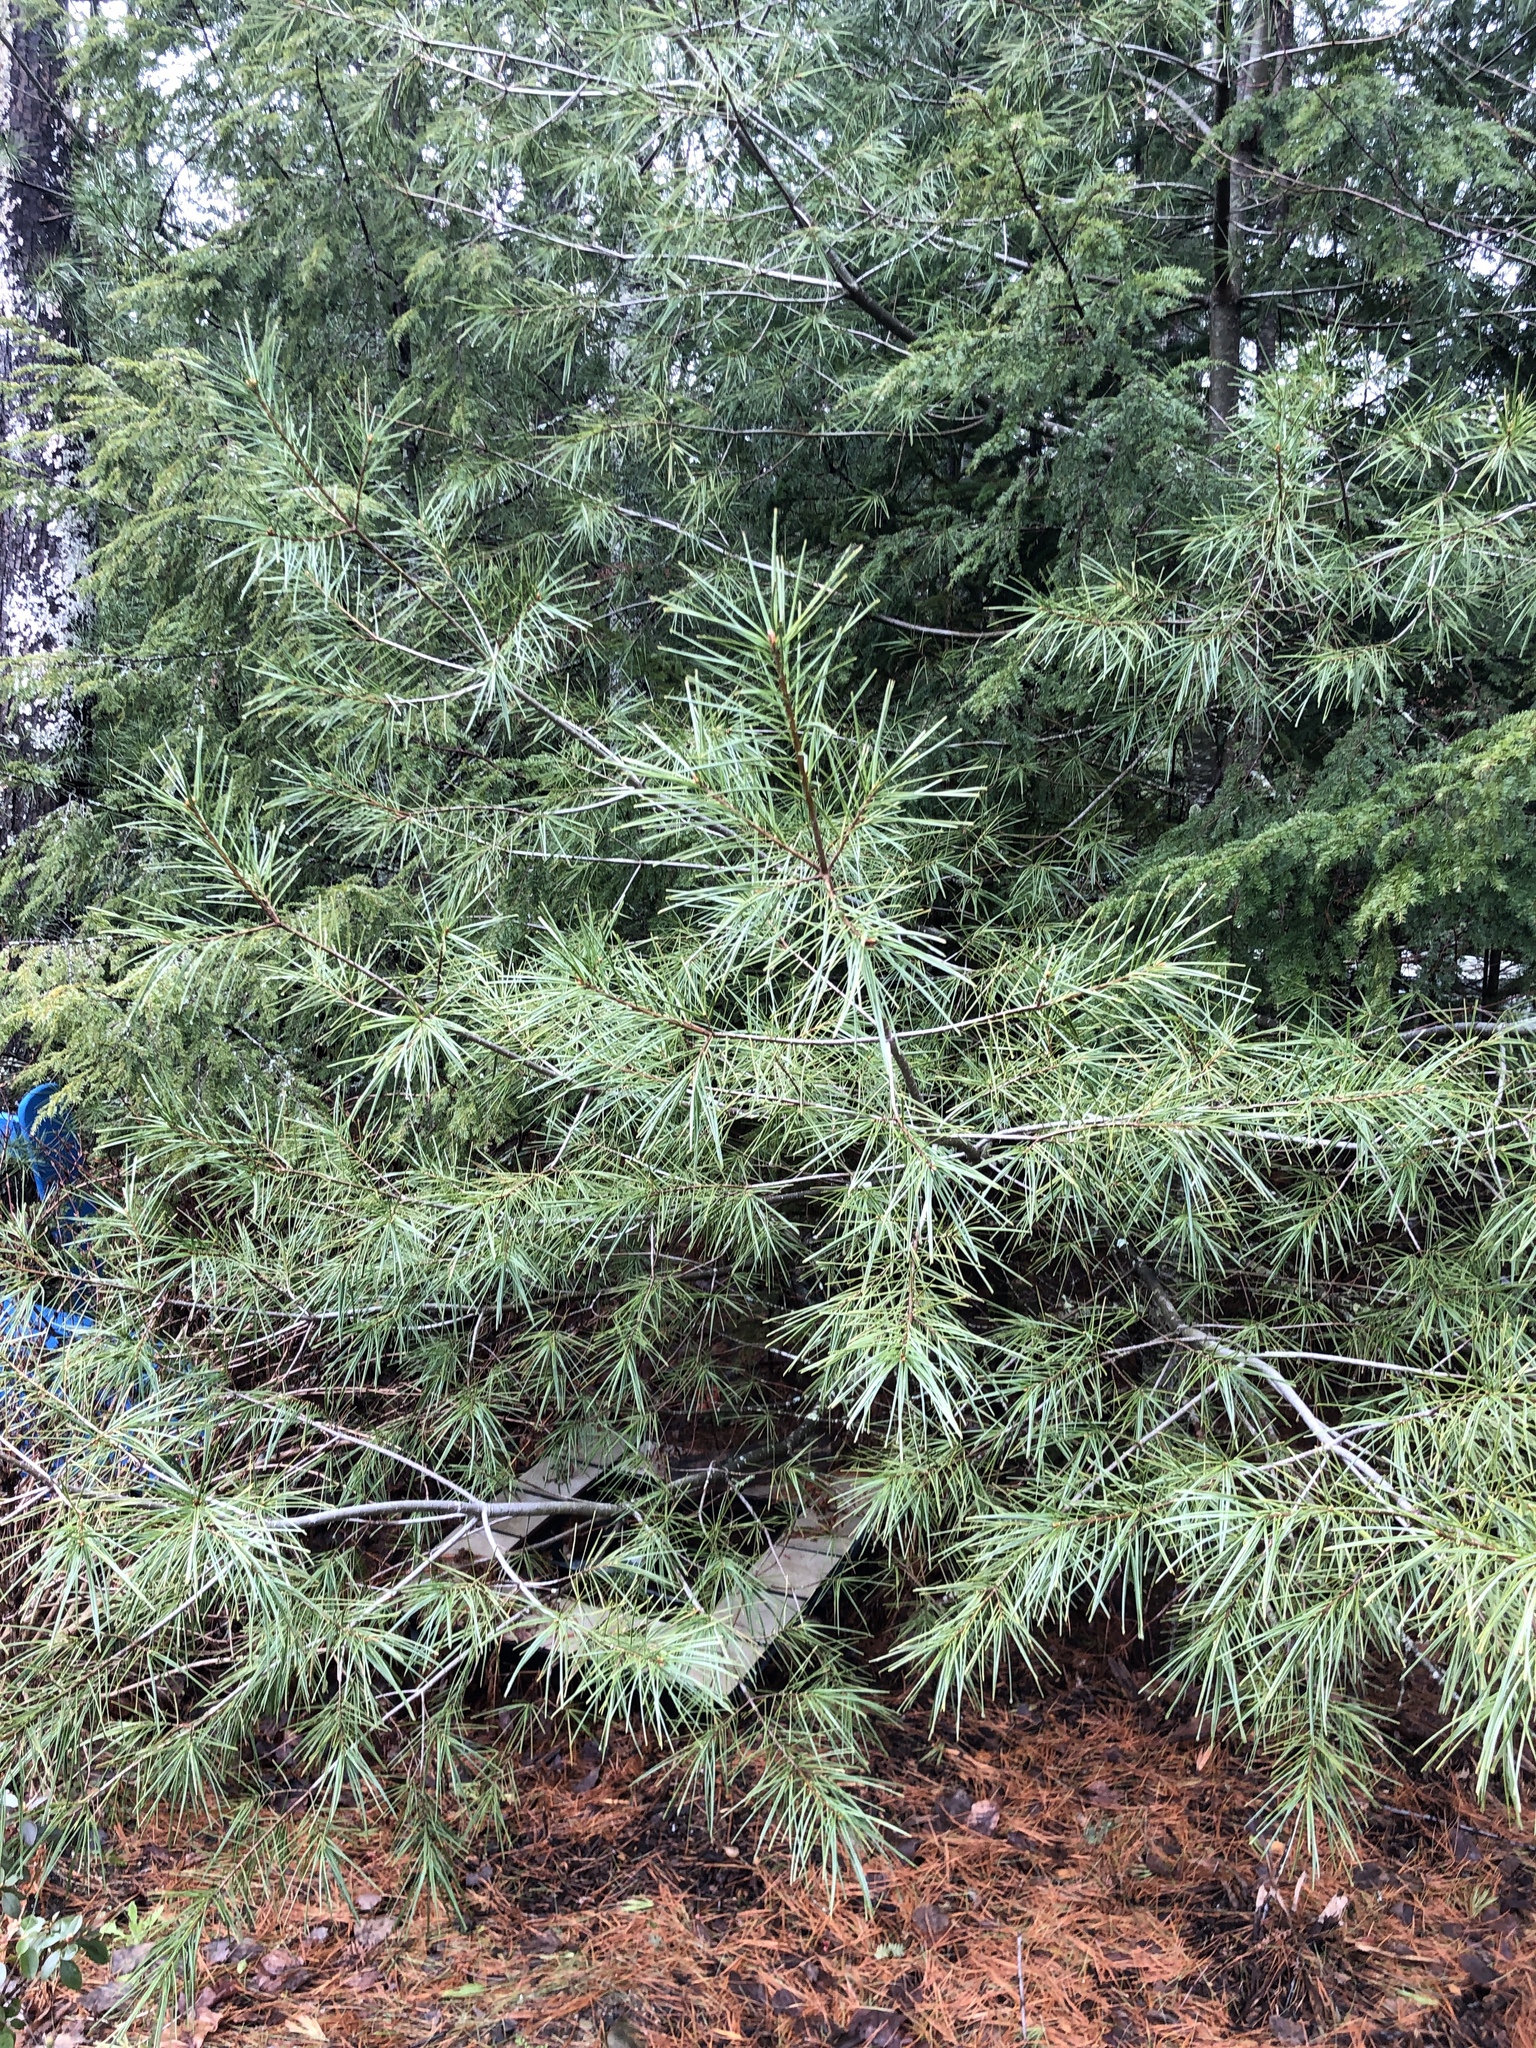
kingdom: Plantae
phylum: Tracheophyta
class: Pinopsida
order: Pinales
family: Pinaceae
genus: Pinus
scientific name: Pinus strobus
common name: Weymouth pine
